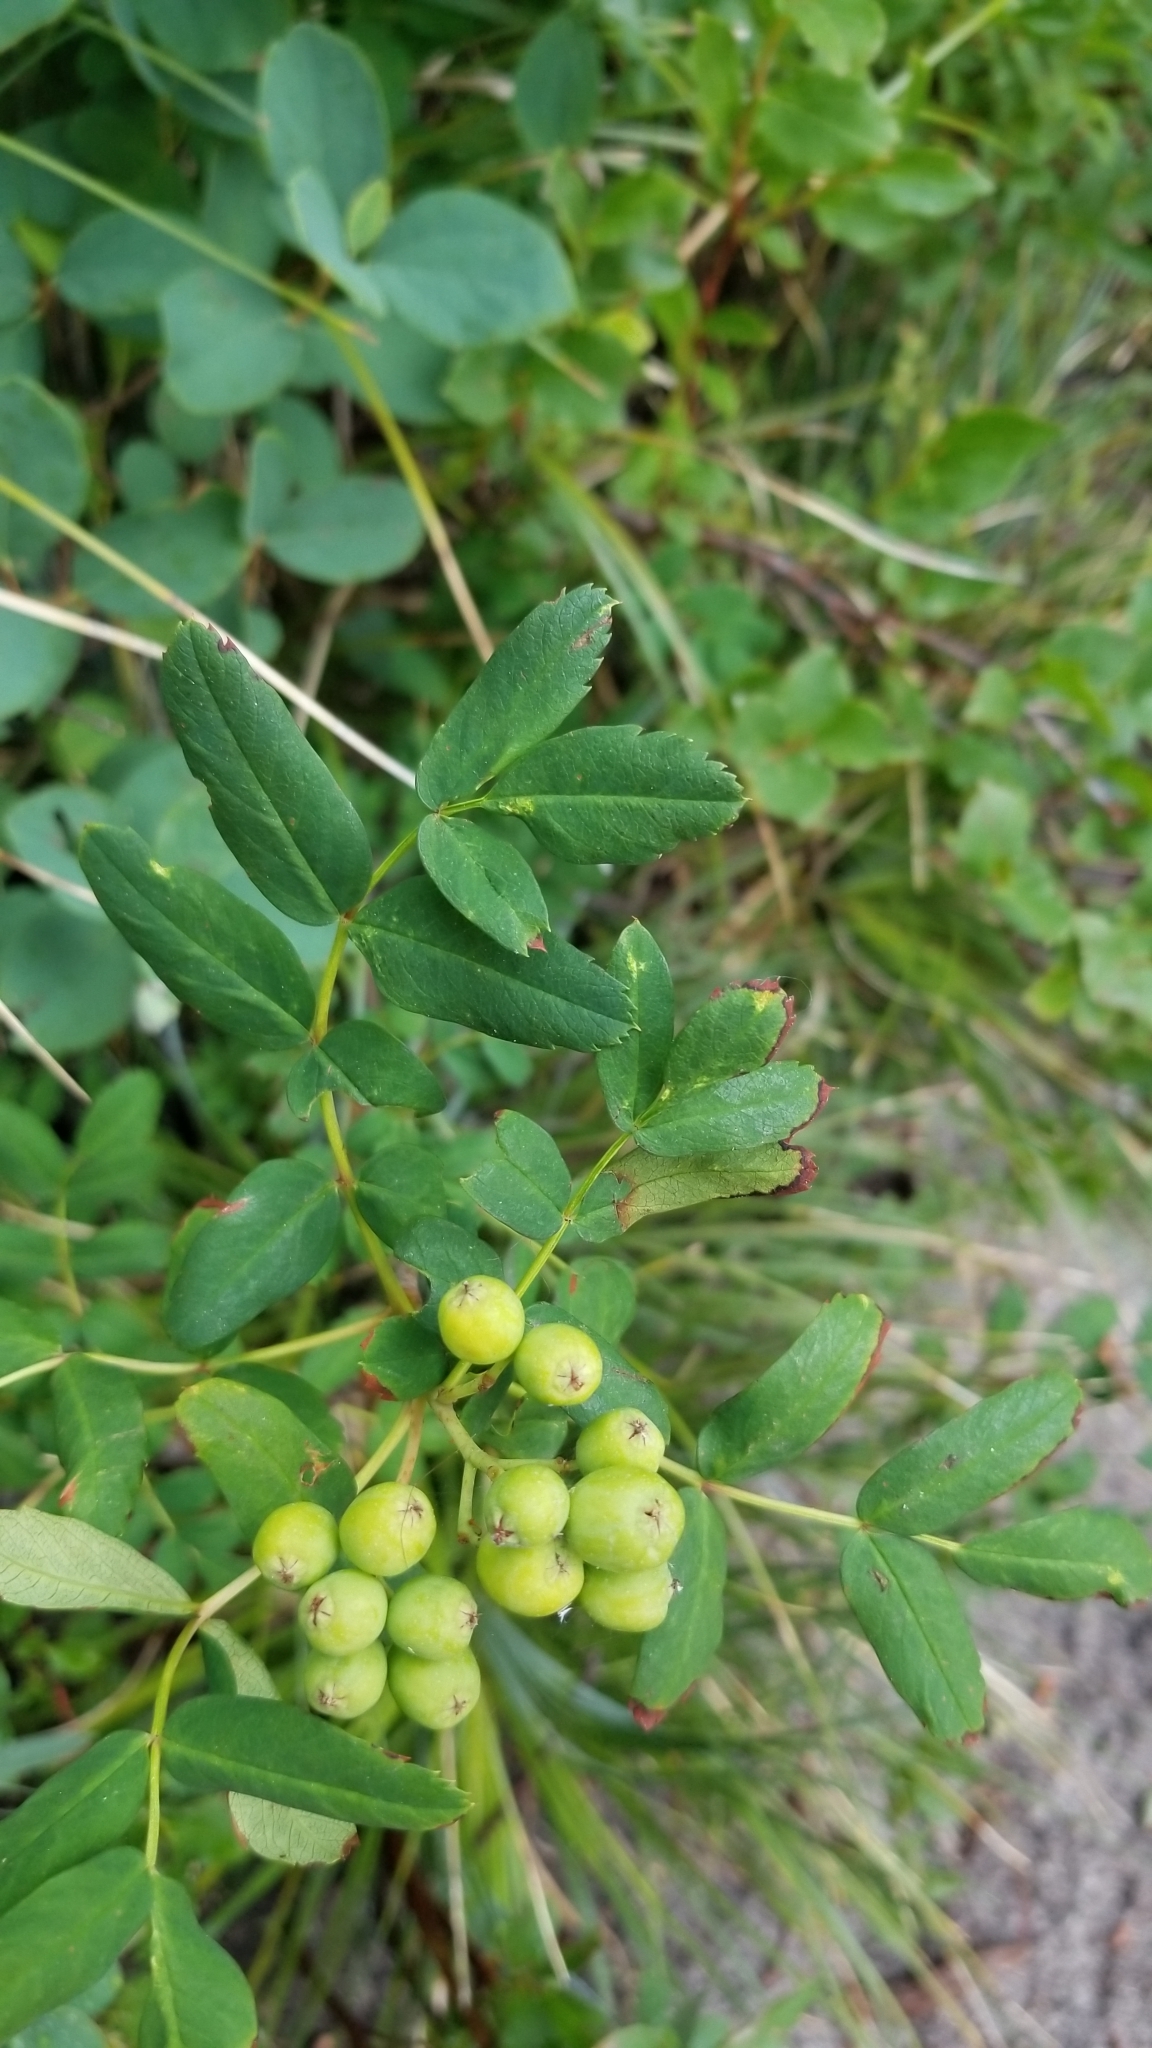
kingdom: Plantae
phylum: Tracheophyta
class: Magnoliopsida
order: Rosales
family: Rosaceae
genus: Sorbus
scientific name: Sorbus sitchensis
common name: Sitka mountain-ash
